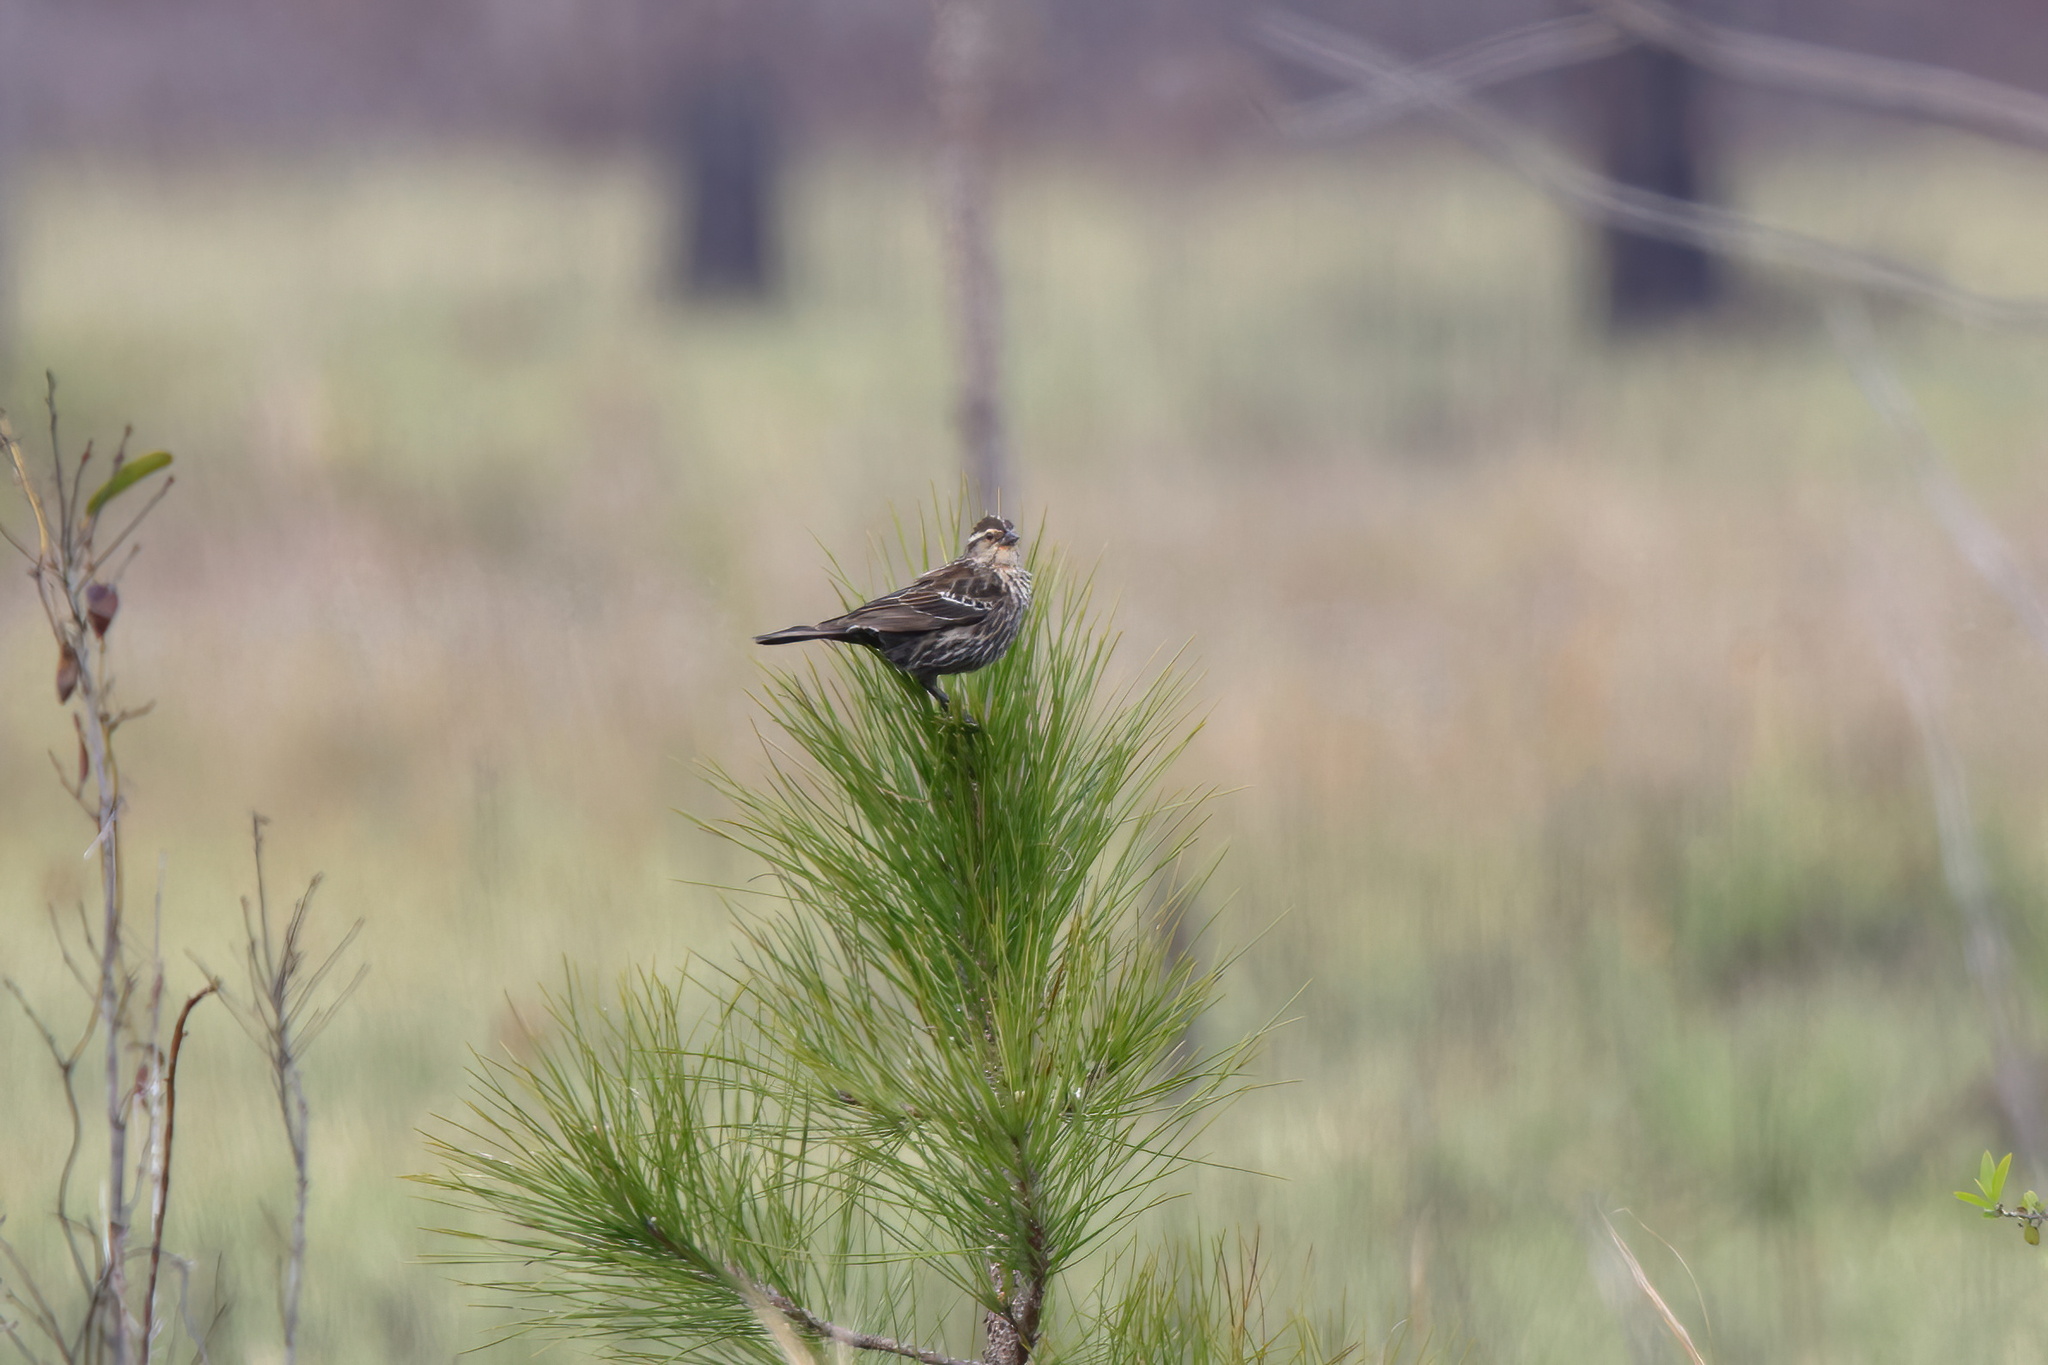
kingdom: Animalia
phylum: Chordata
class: Aves
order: Passeriformes
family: Icteridae
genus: Agelaius
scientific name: Agelaius phoeniceus
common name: Red-winged blackbird
